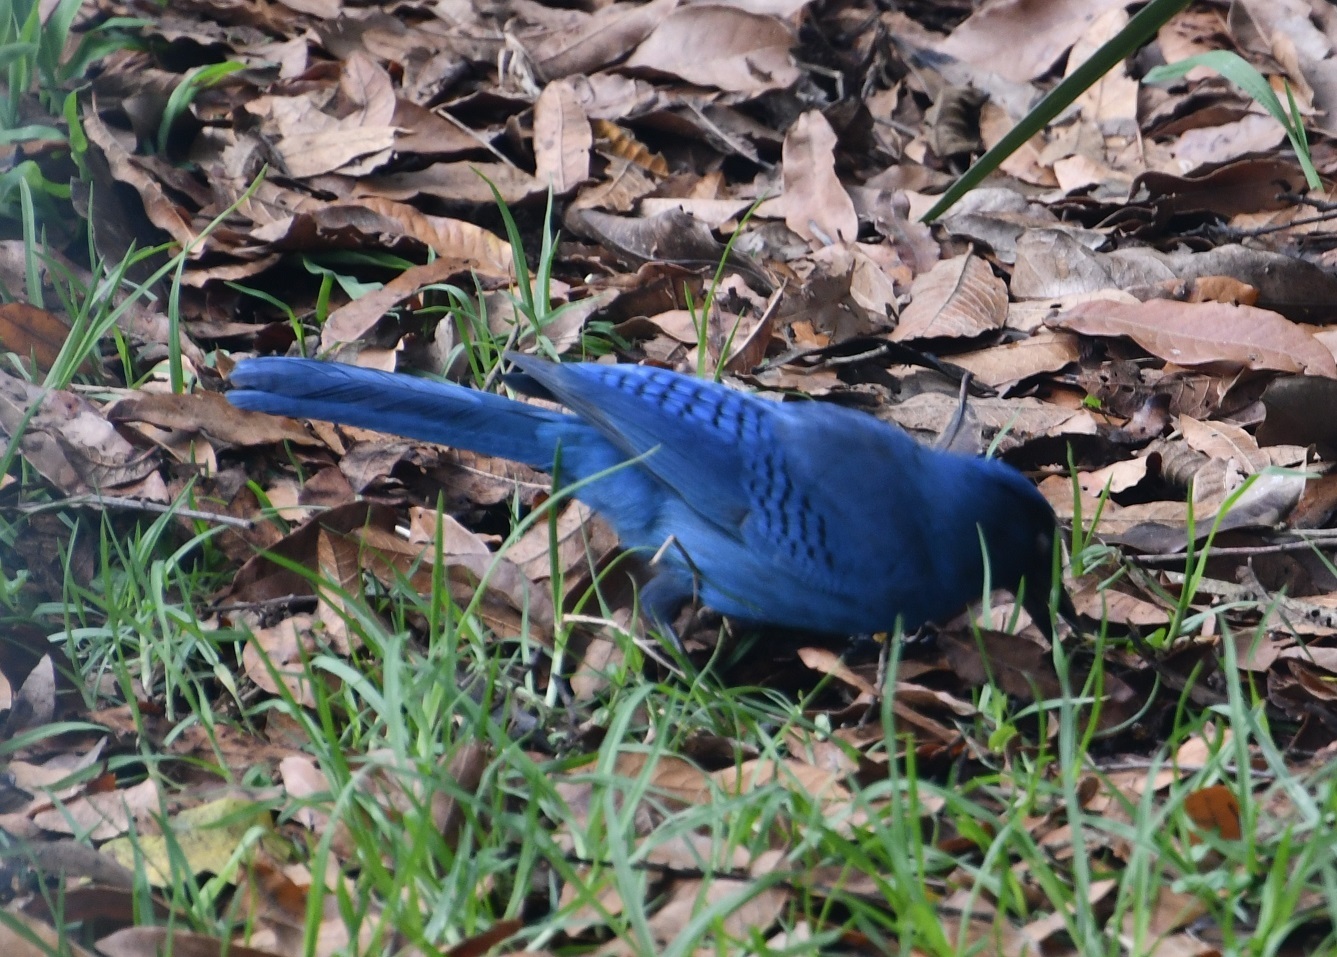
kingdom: Animalia
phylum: Chordata
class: Aves
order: Passeriformes
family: Corvidae
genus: Cyanocitta
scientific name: Cyanocitta stelleri
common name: Steller's jay
